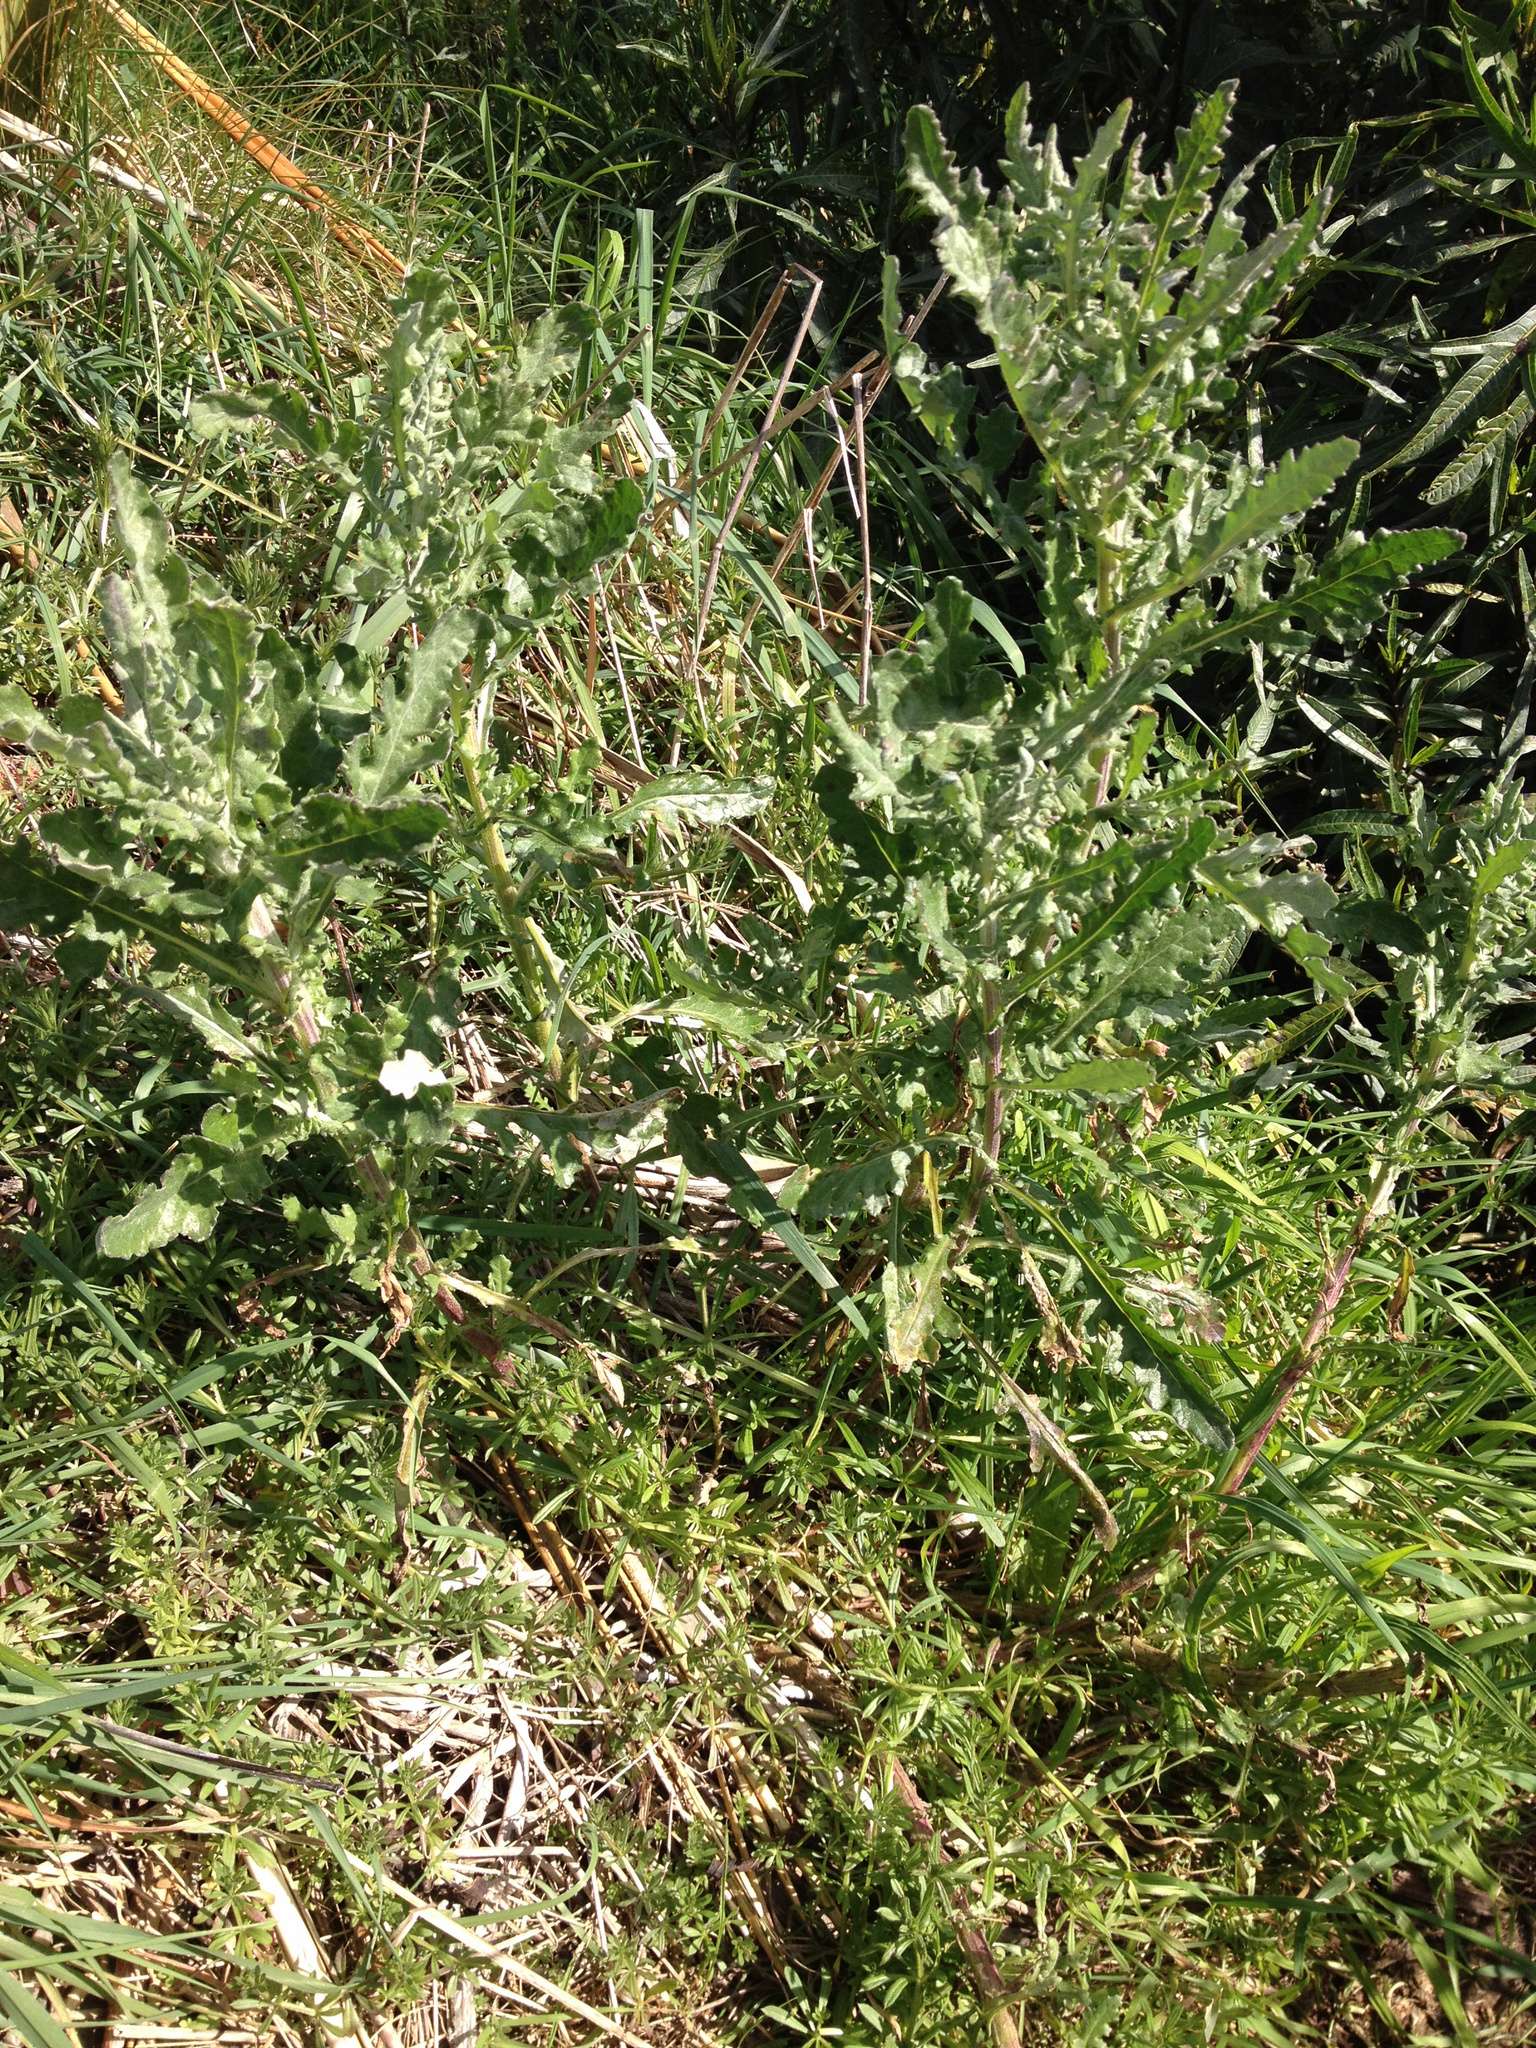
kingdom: Plantae
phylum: Tracheophyta
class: Magnoliopsida
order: Asterales
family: Asteraceae
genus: Senecio
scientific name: Senecio glomeratus
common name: Cutleaf burnweed
